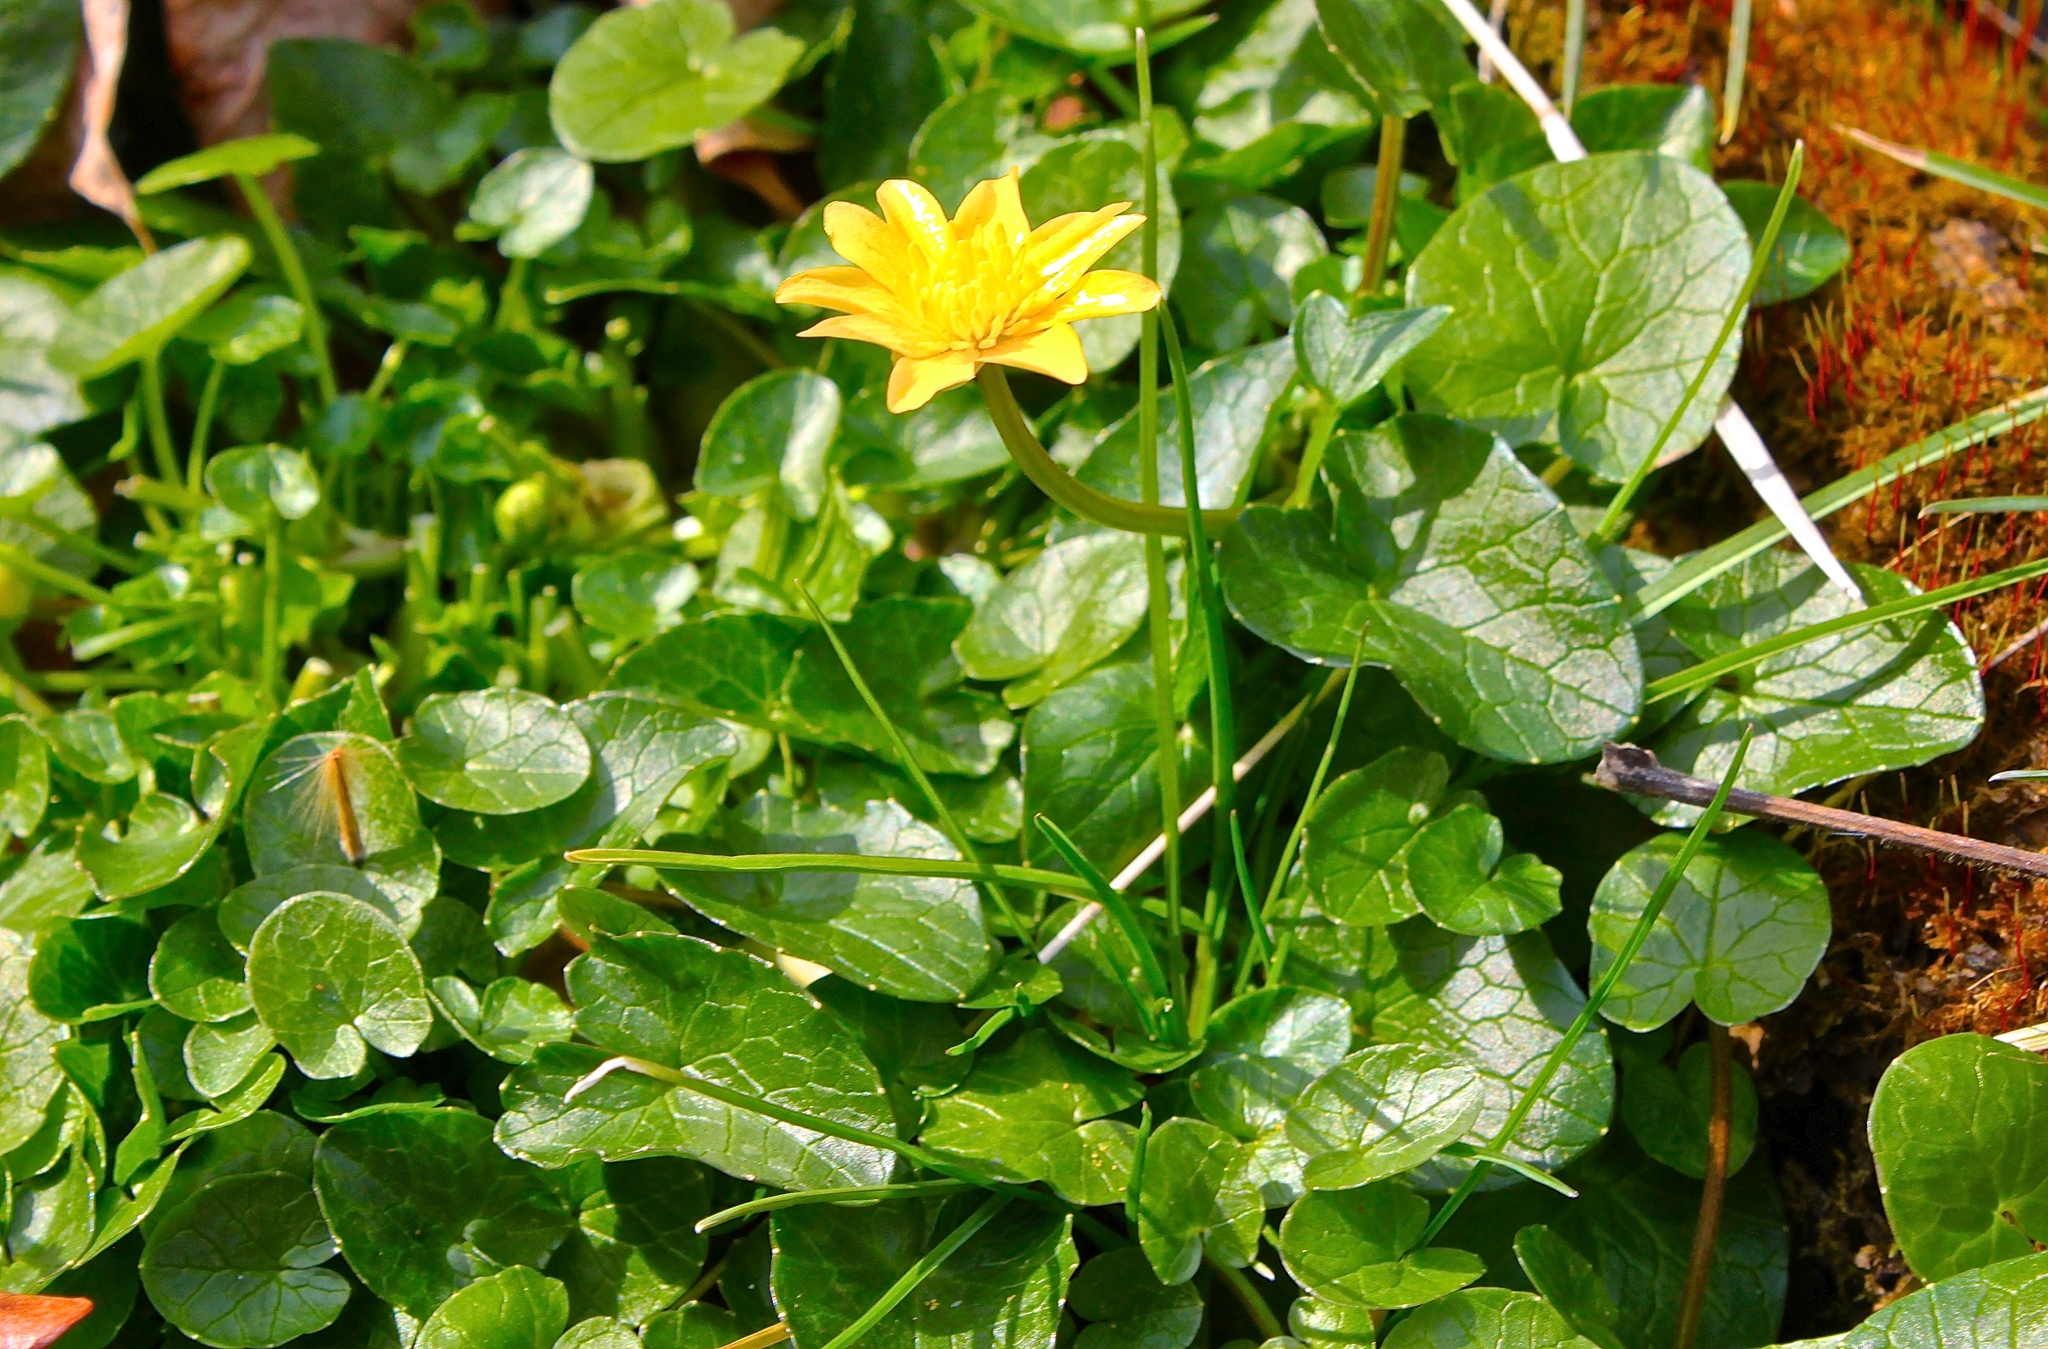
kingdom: Plantae
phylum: Tracheophyta
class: Magnoliopsida
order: Ranunculales
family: Ranunculaceae
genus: Ficaria
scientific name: Ficaria verna
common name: Lesser celandine
